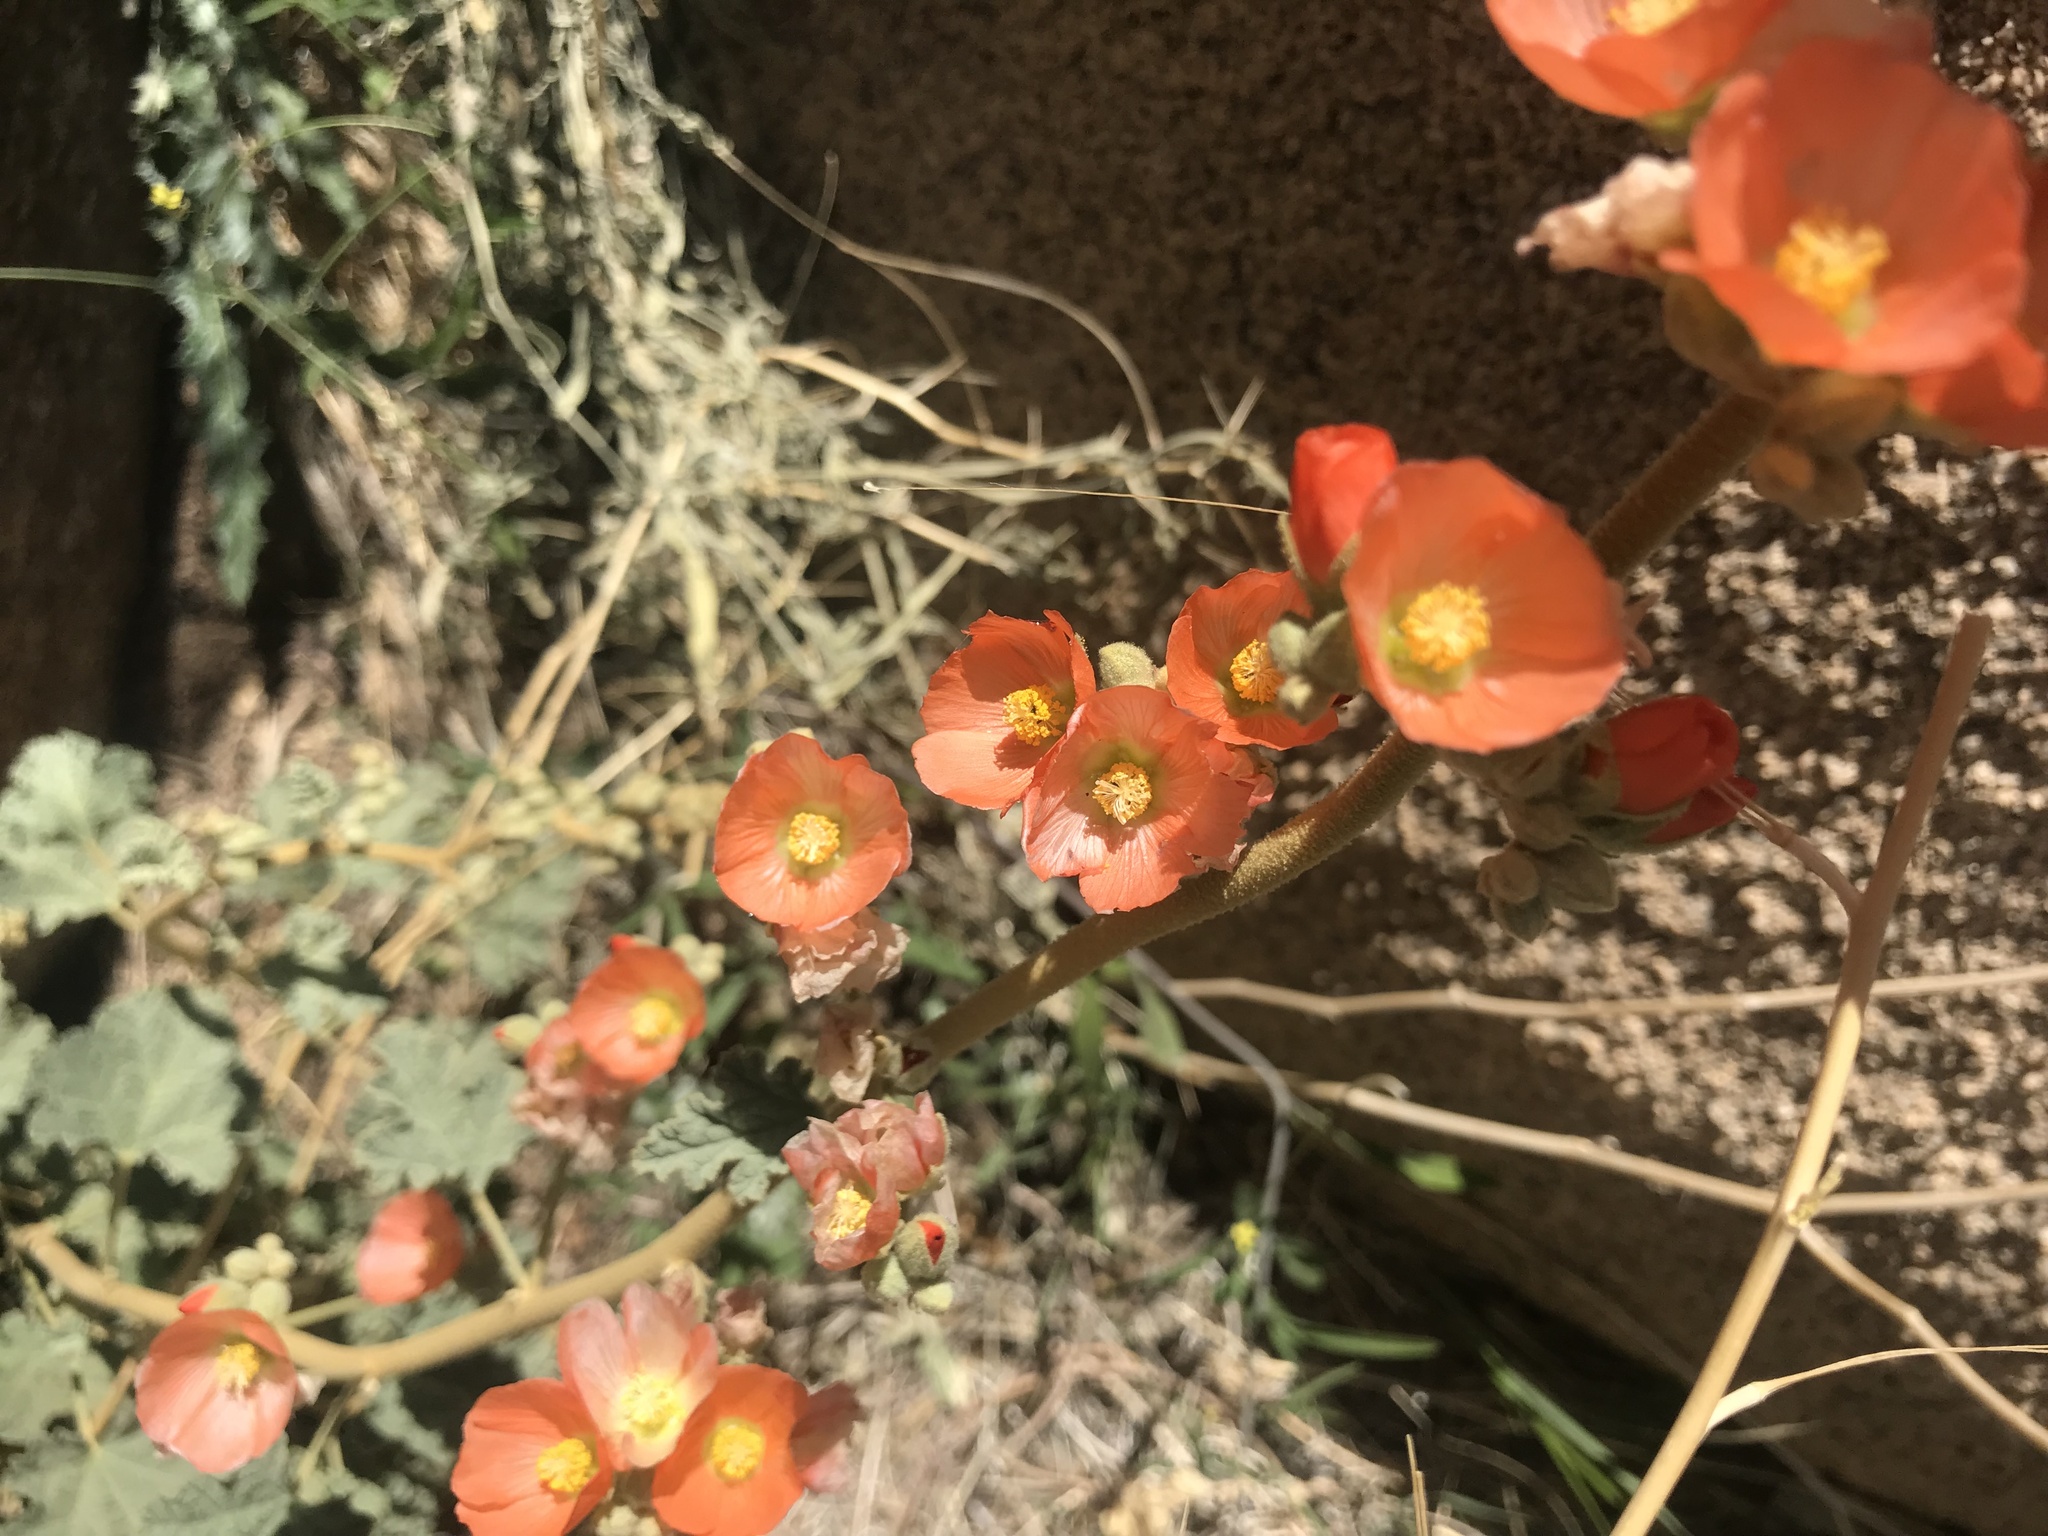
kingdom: Plantae
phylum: Tracheophyta
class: Magnoliopsida
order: Malvales
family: Malvaceae
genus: Sphaeralcea
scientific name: Sphaeralcea ambigua
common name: Apricot globe-mallow
